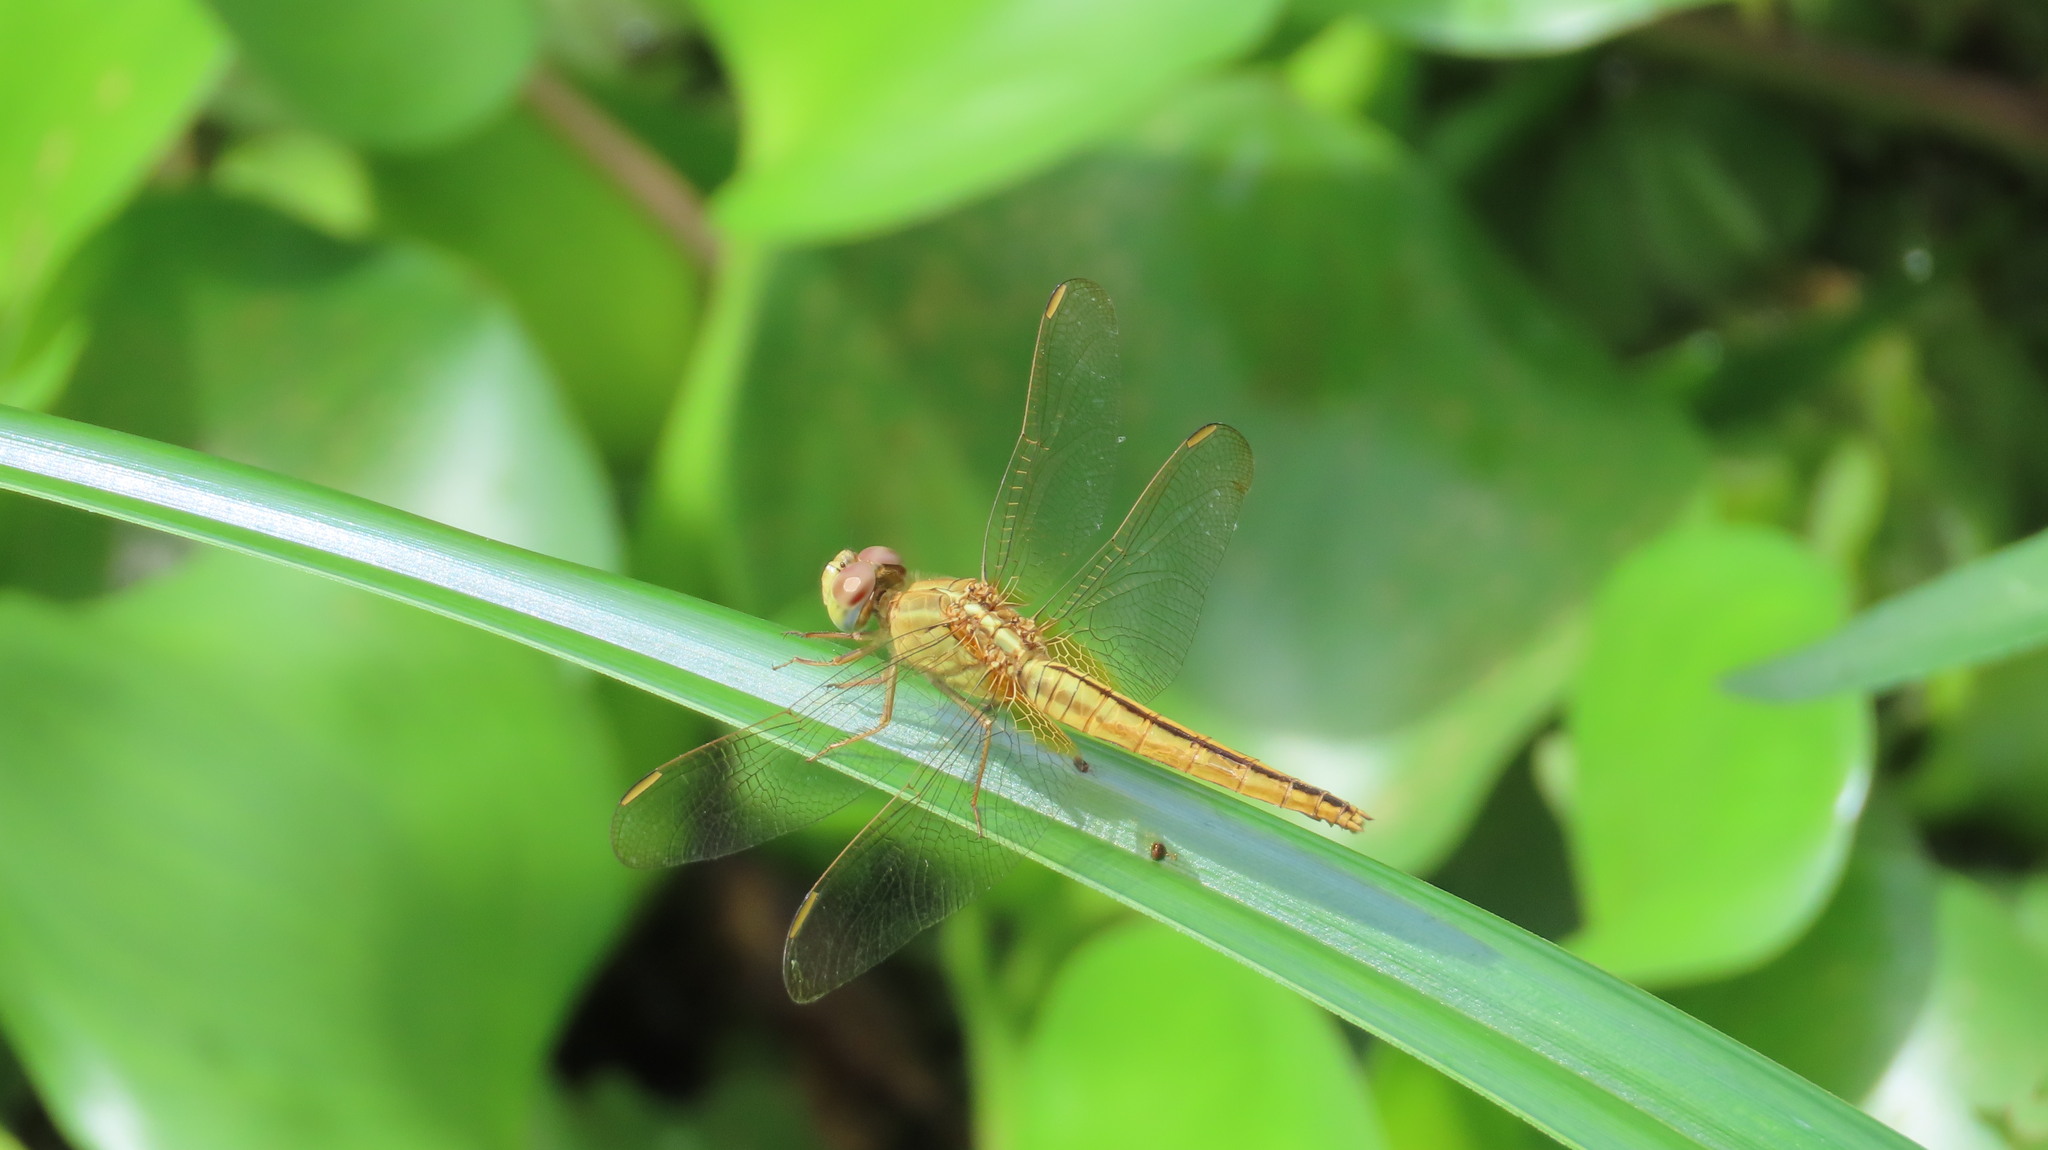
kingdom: Animalia
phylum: Arthropoda
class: Insecta
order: Odonata
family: Libellulidae
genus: Crocothemis
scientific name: Crocothemis servilia
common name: Scarlet skimmer
